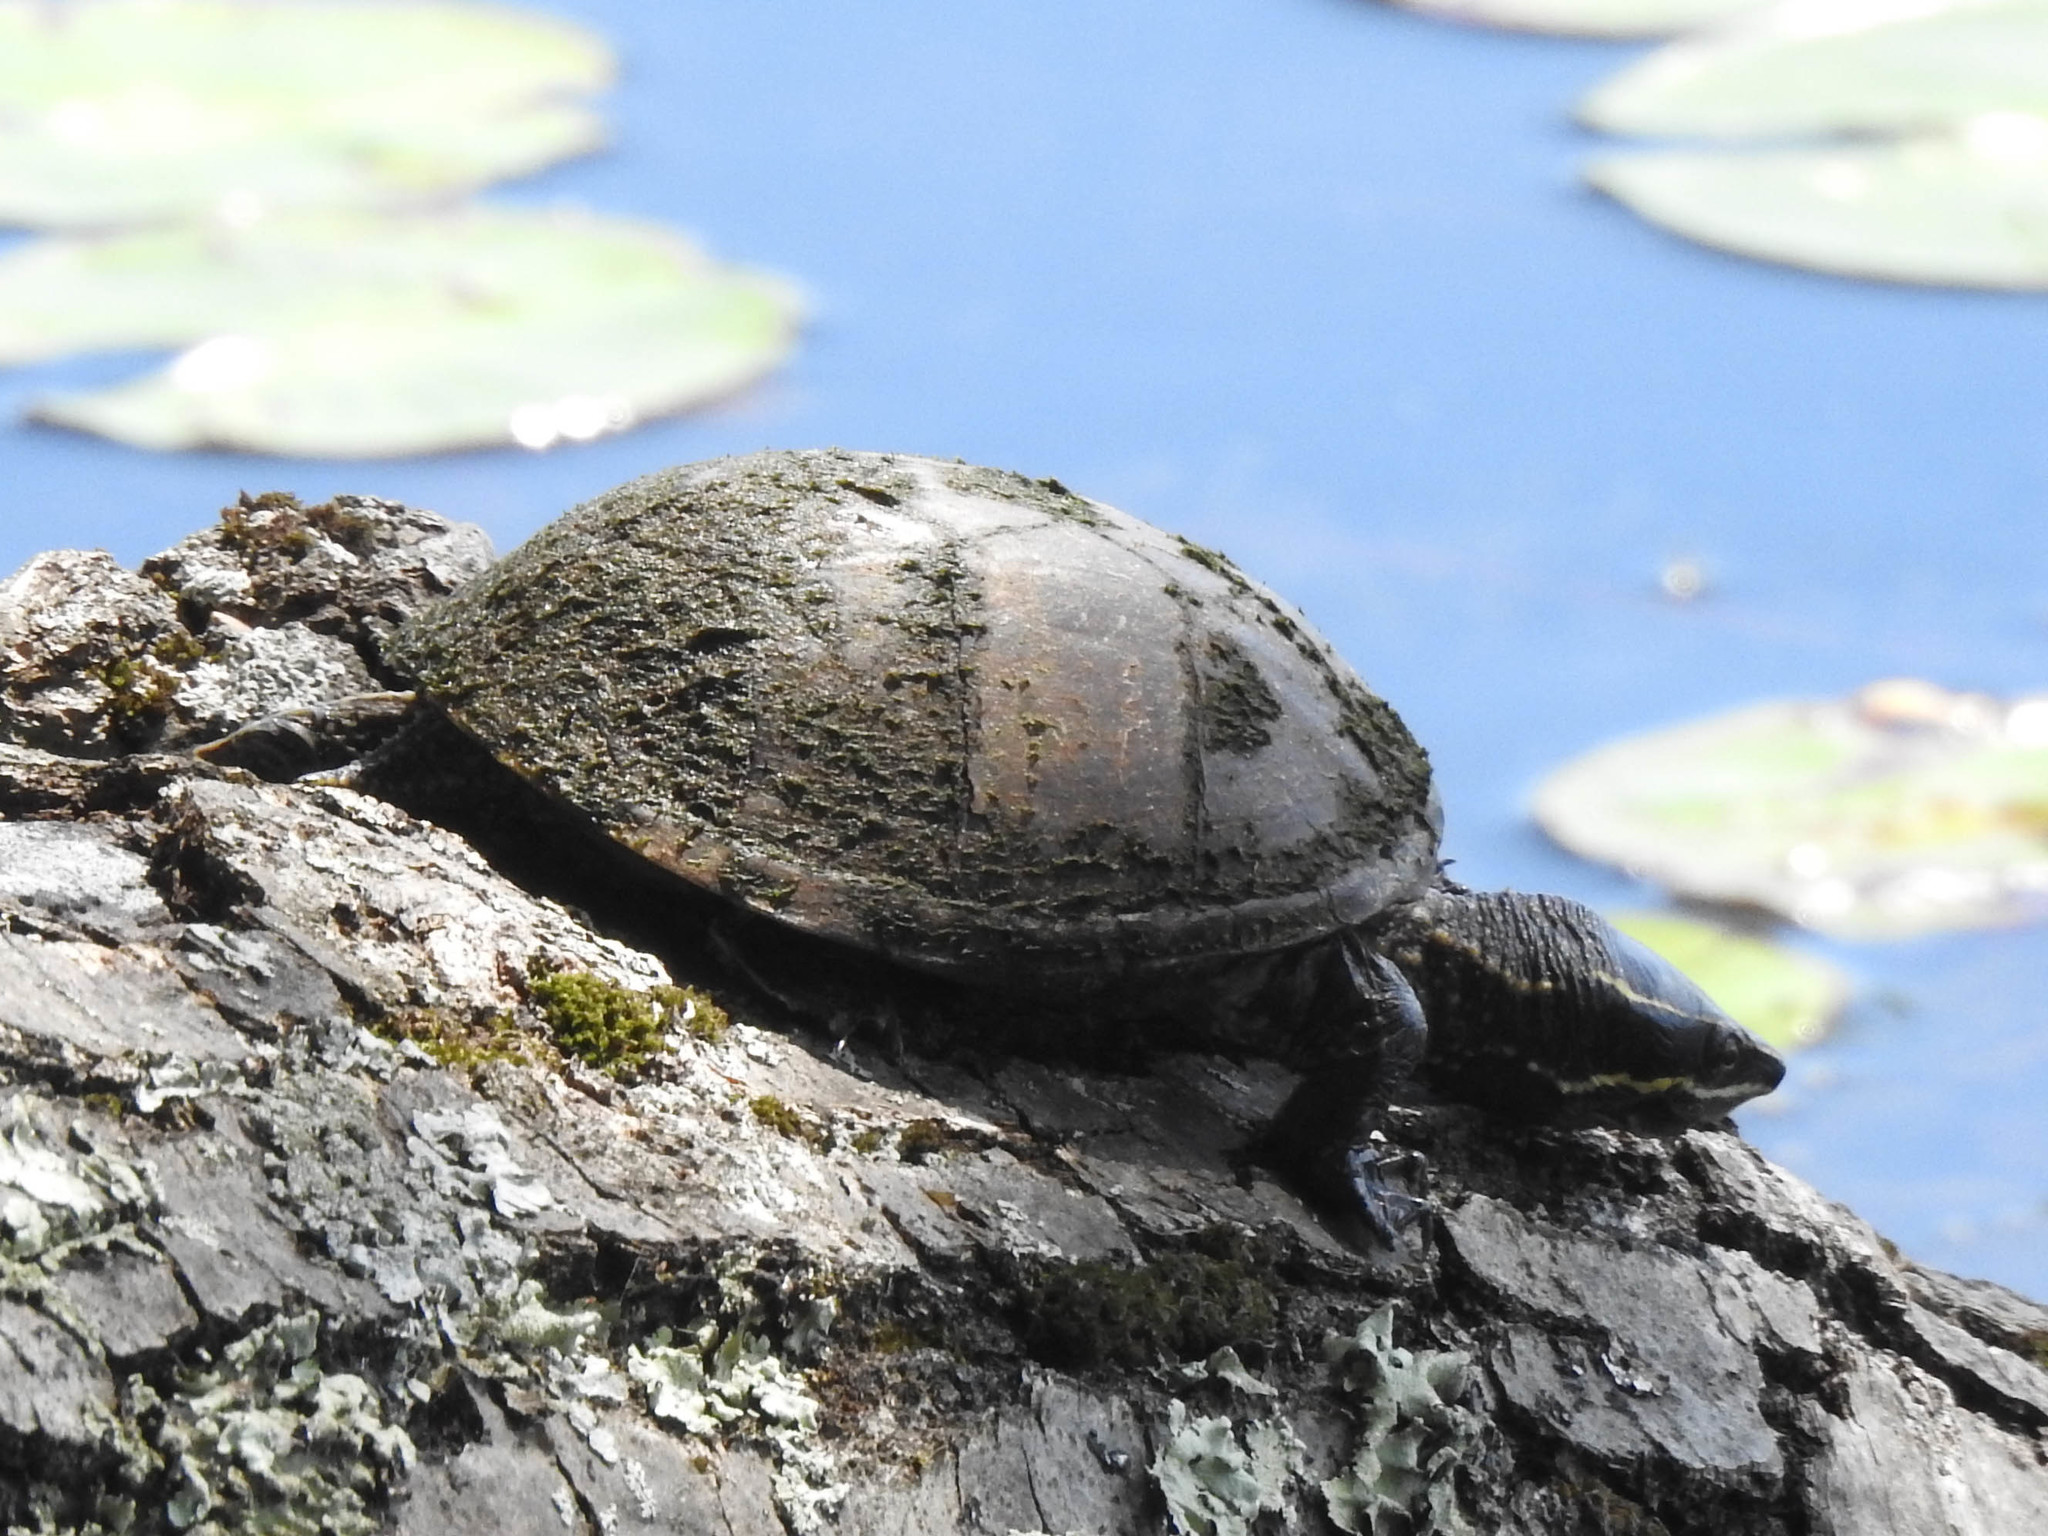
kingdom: Animalia
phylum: Chordata
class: Testudines
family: Kinosternidae
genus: Sternotherus
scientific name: Sternotherus odoratus
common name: Common musk turtle
